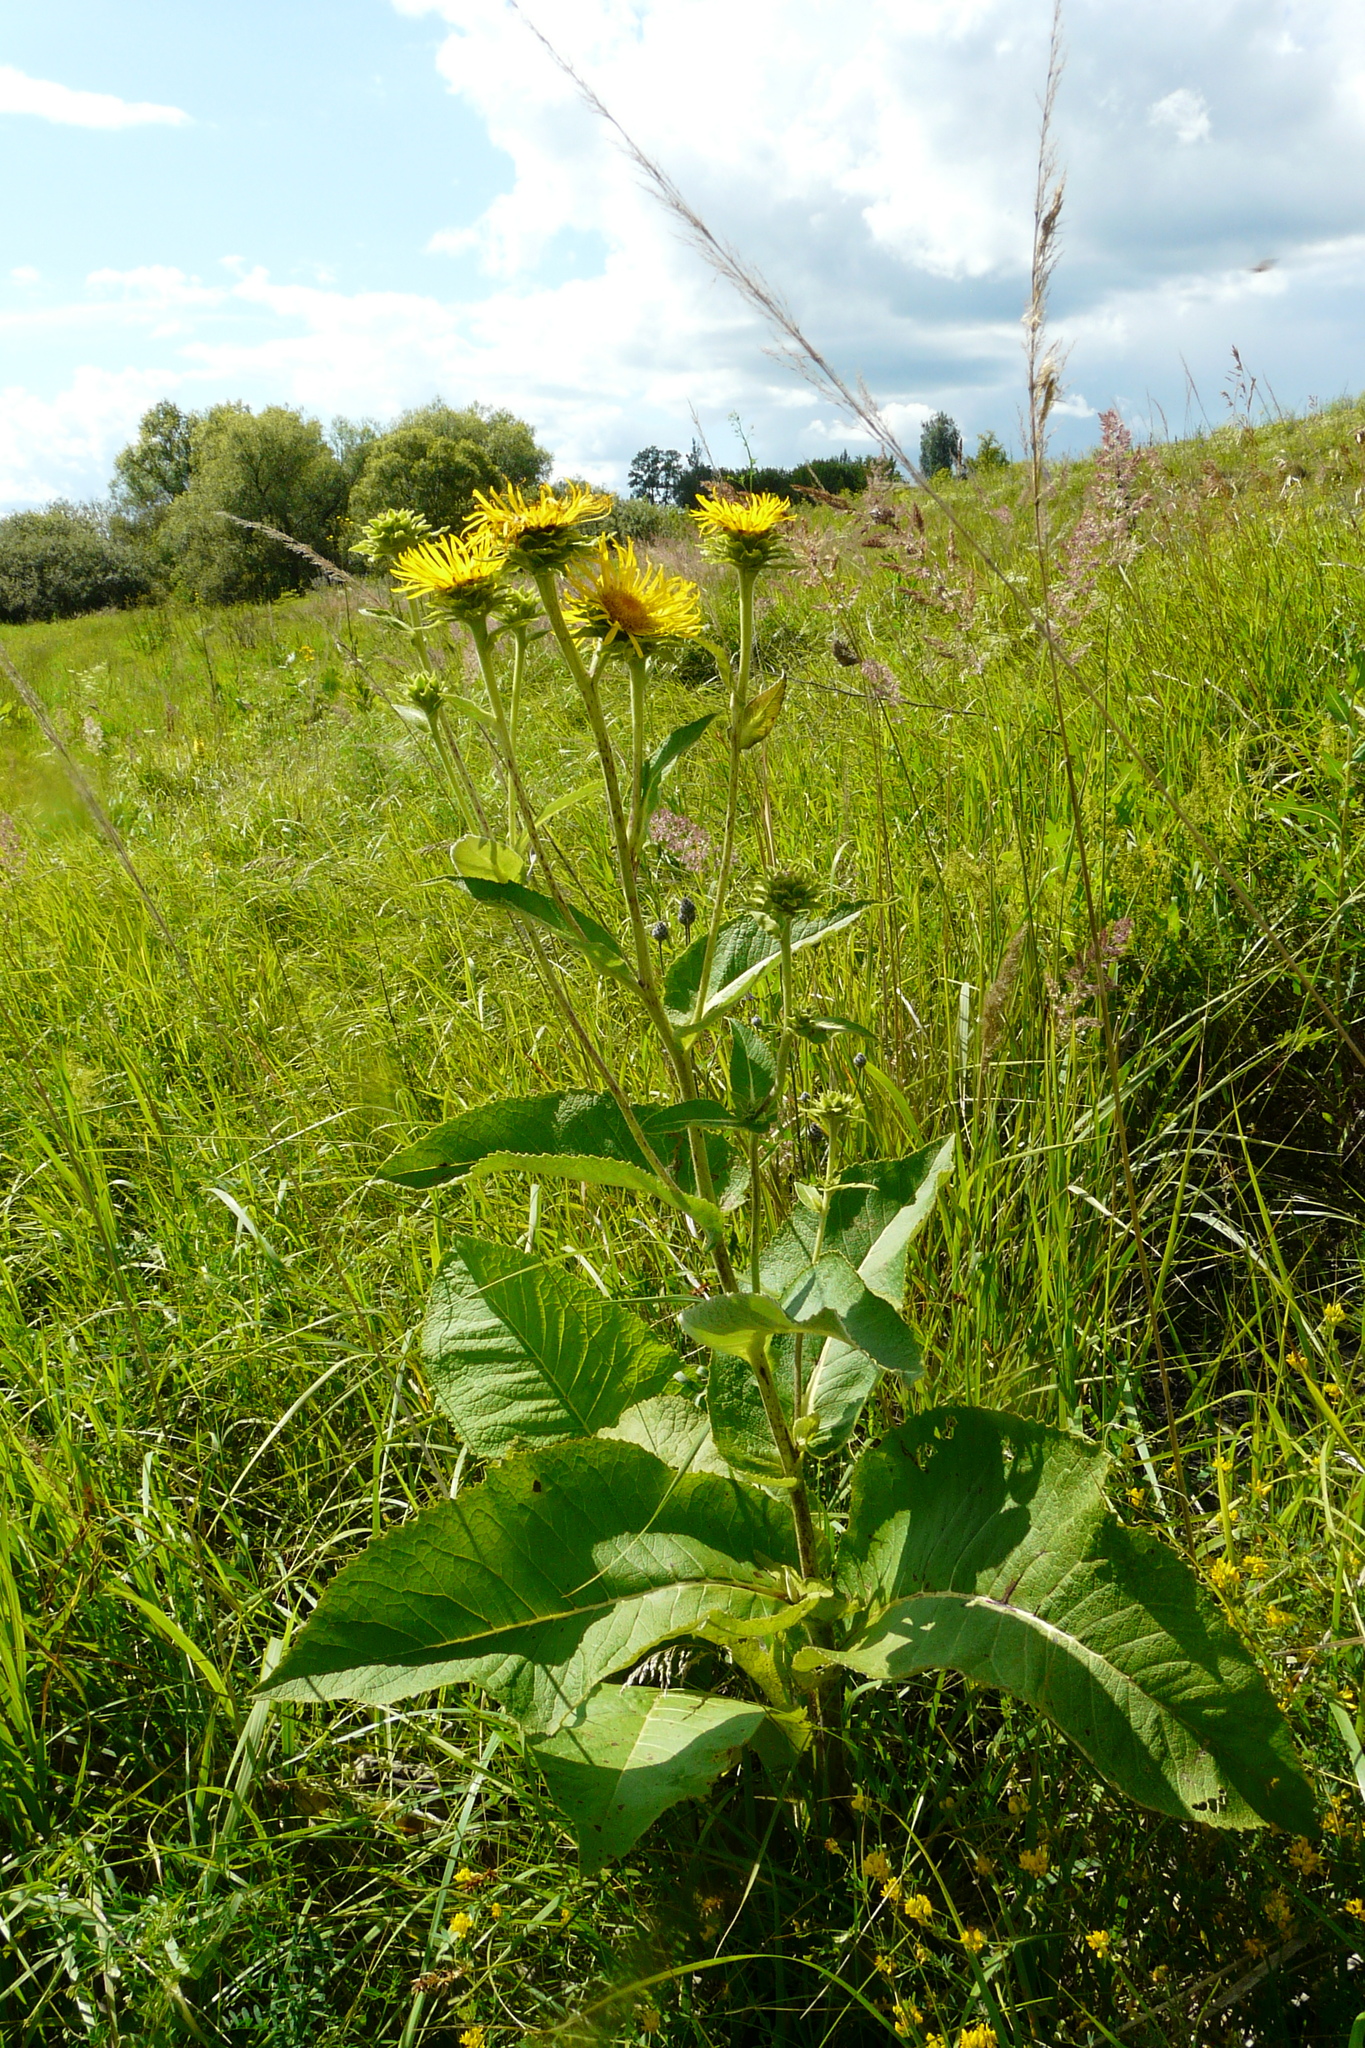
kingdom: Plantae
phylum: Tracheophyta
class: Magnoliopsida
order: Asterales
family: Asteraceae
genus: Inula
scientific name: Inula helenium
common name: Elecampane
